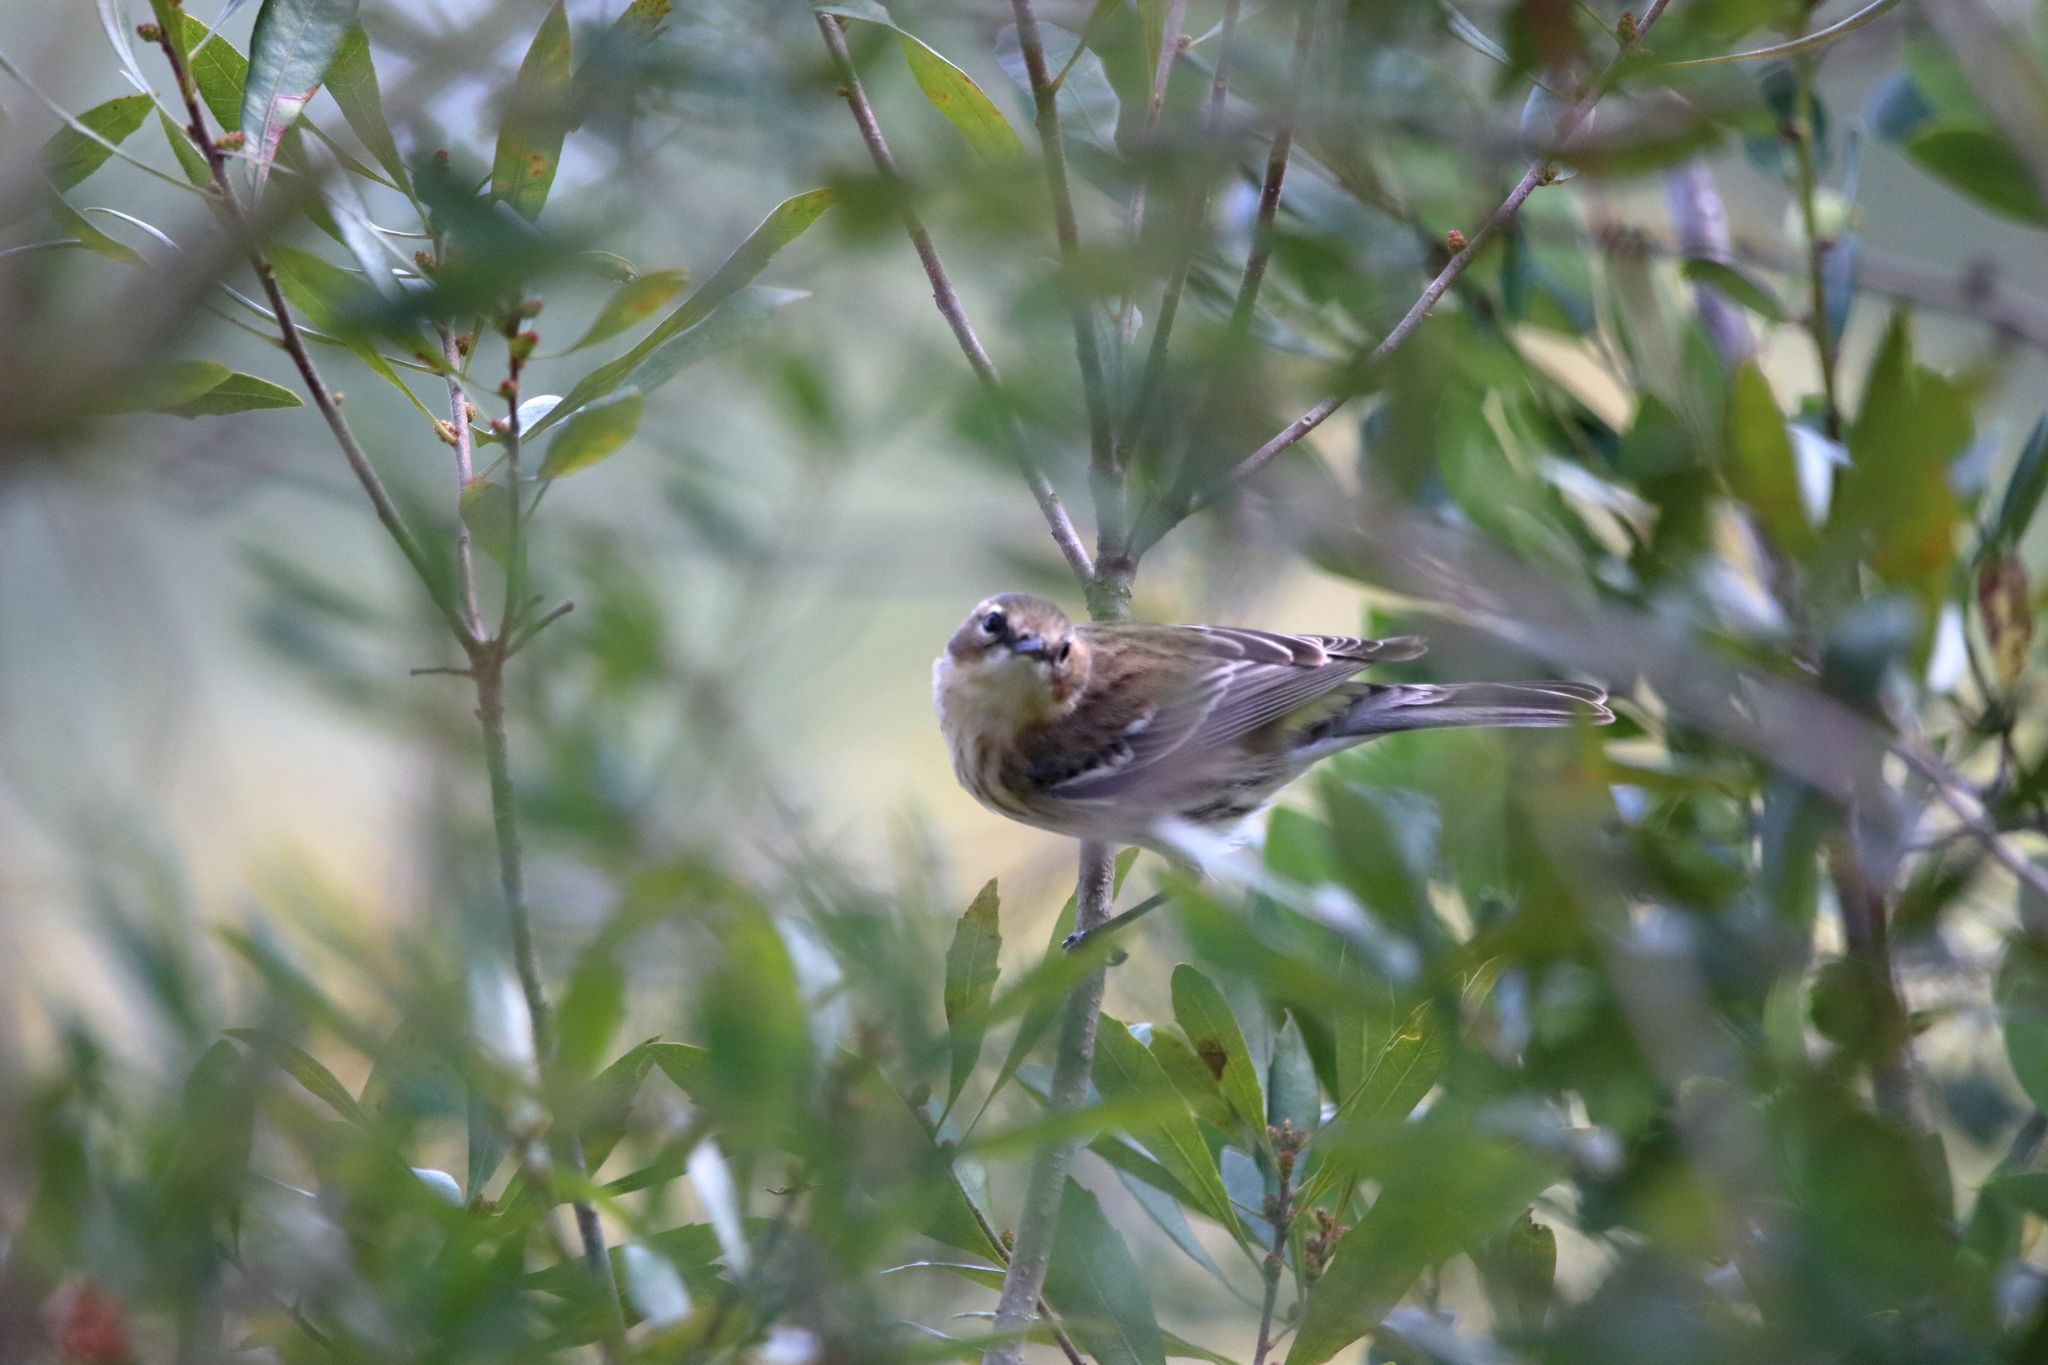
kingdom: Animalia
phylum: Chordata
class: Aves
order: Passeriformes
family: Parulidae
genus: Setophaga
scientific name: Setophaga coronata
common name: Myrtle warbler
